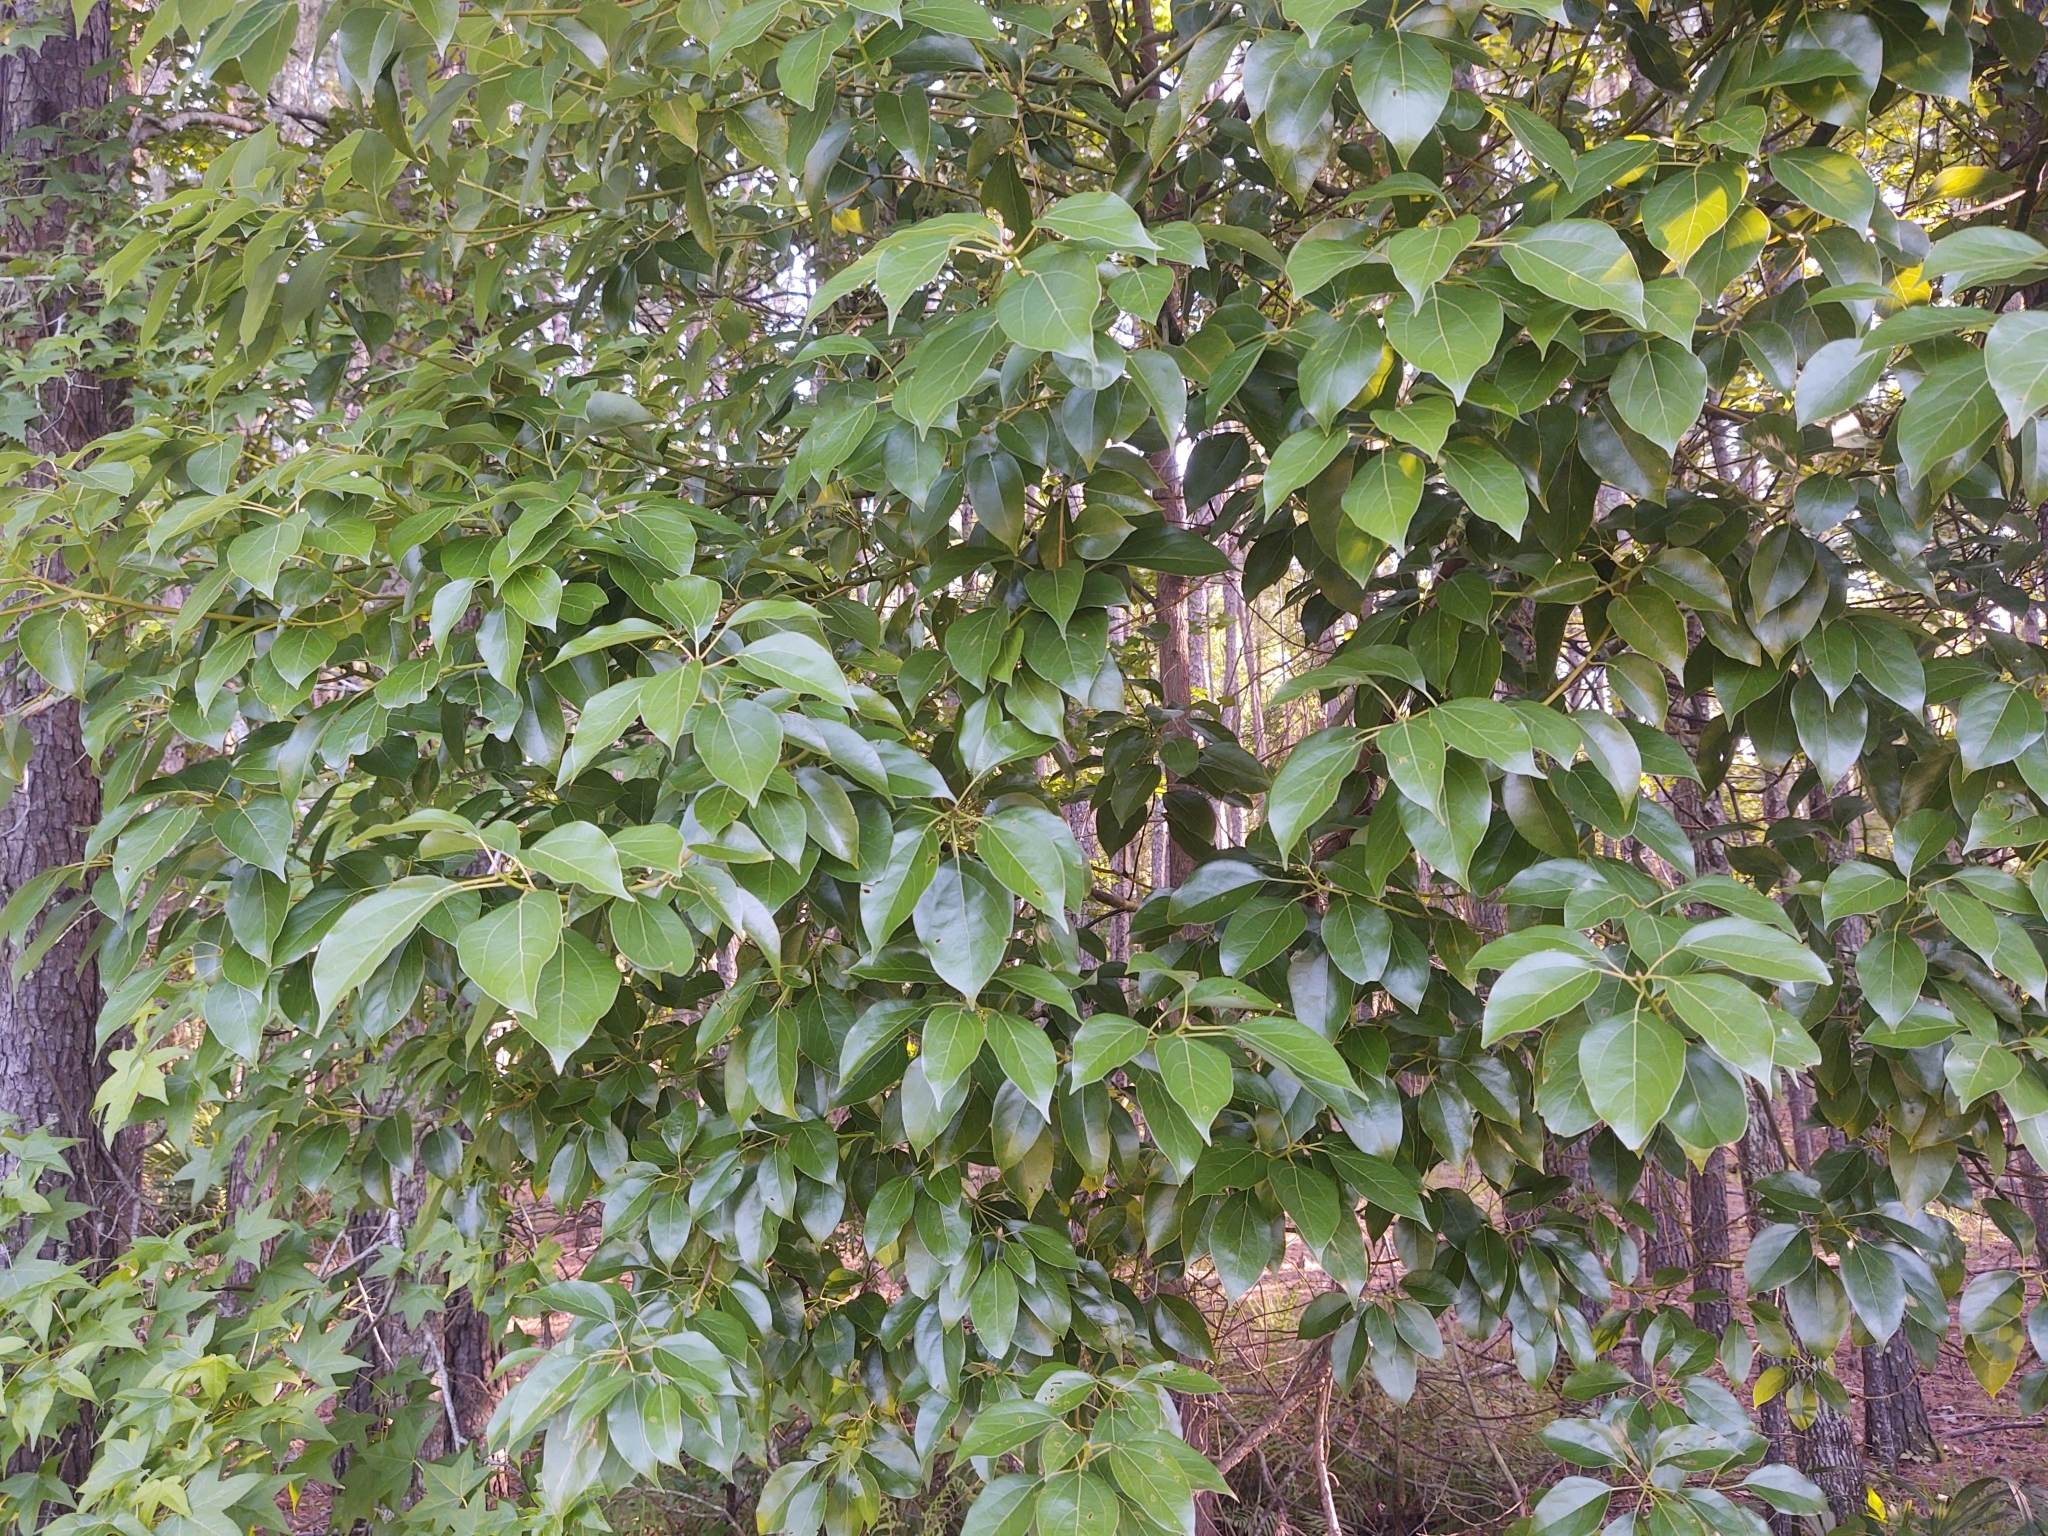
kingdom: Plantae
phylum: Tracheophyta
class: Magnoliopsida
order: Laurales
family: Lauraceae
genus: Cinnamomum
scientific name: Cinnamomum camphora
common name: Camphortree
